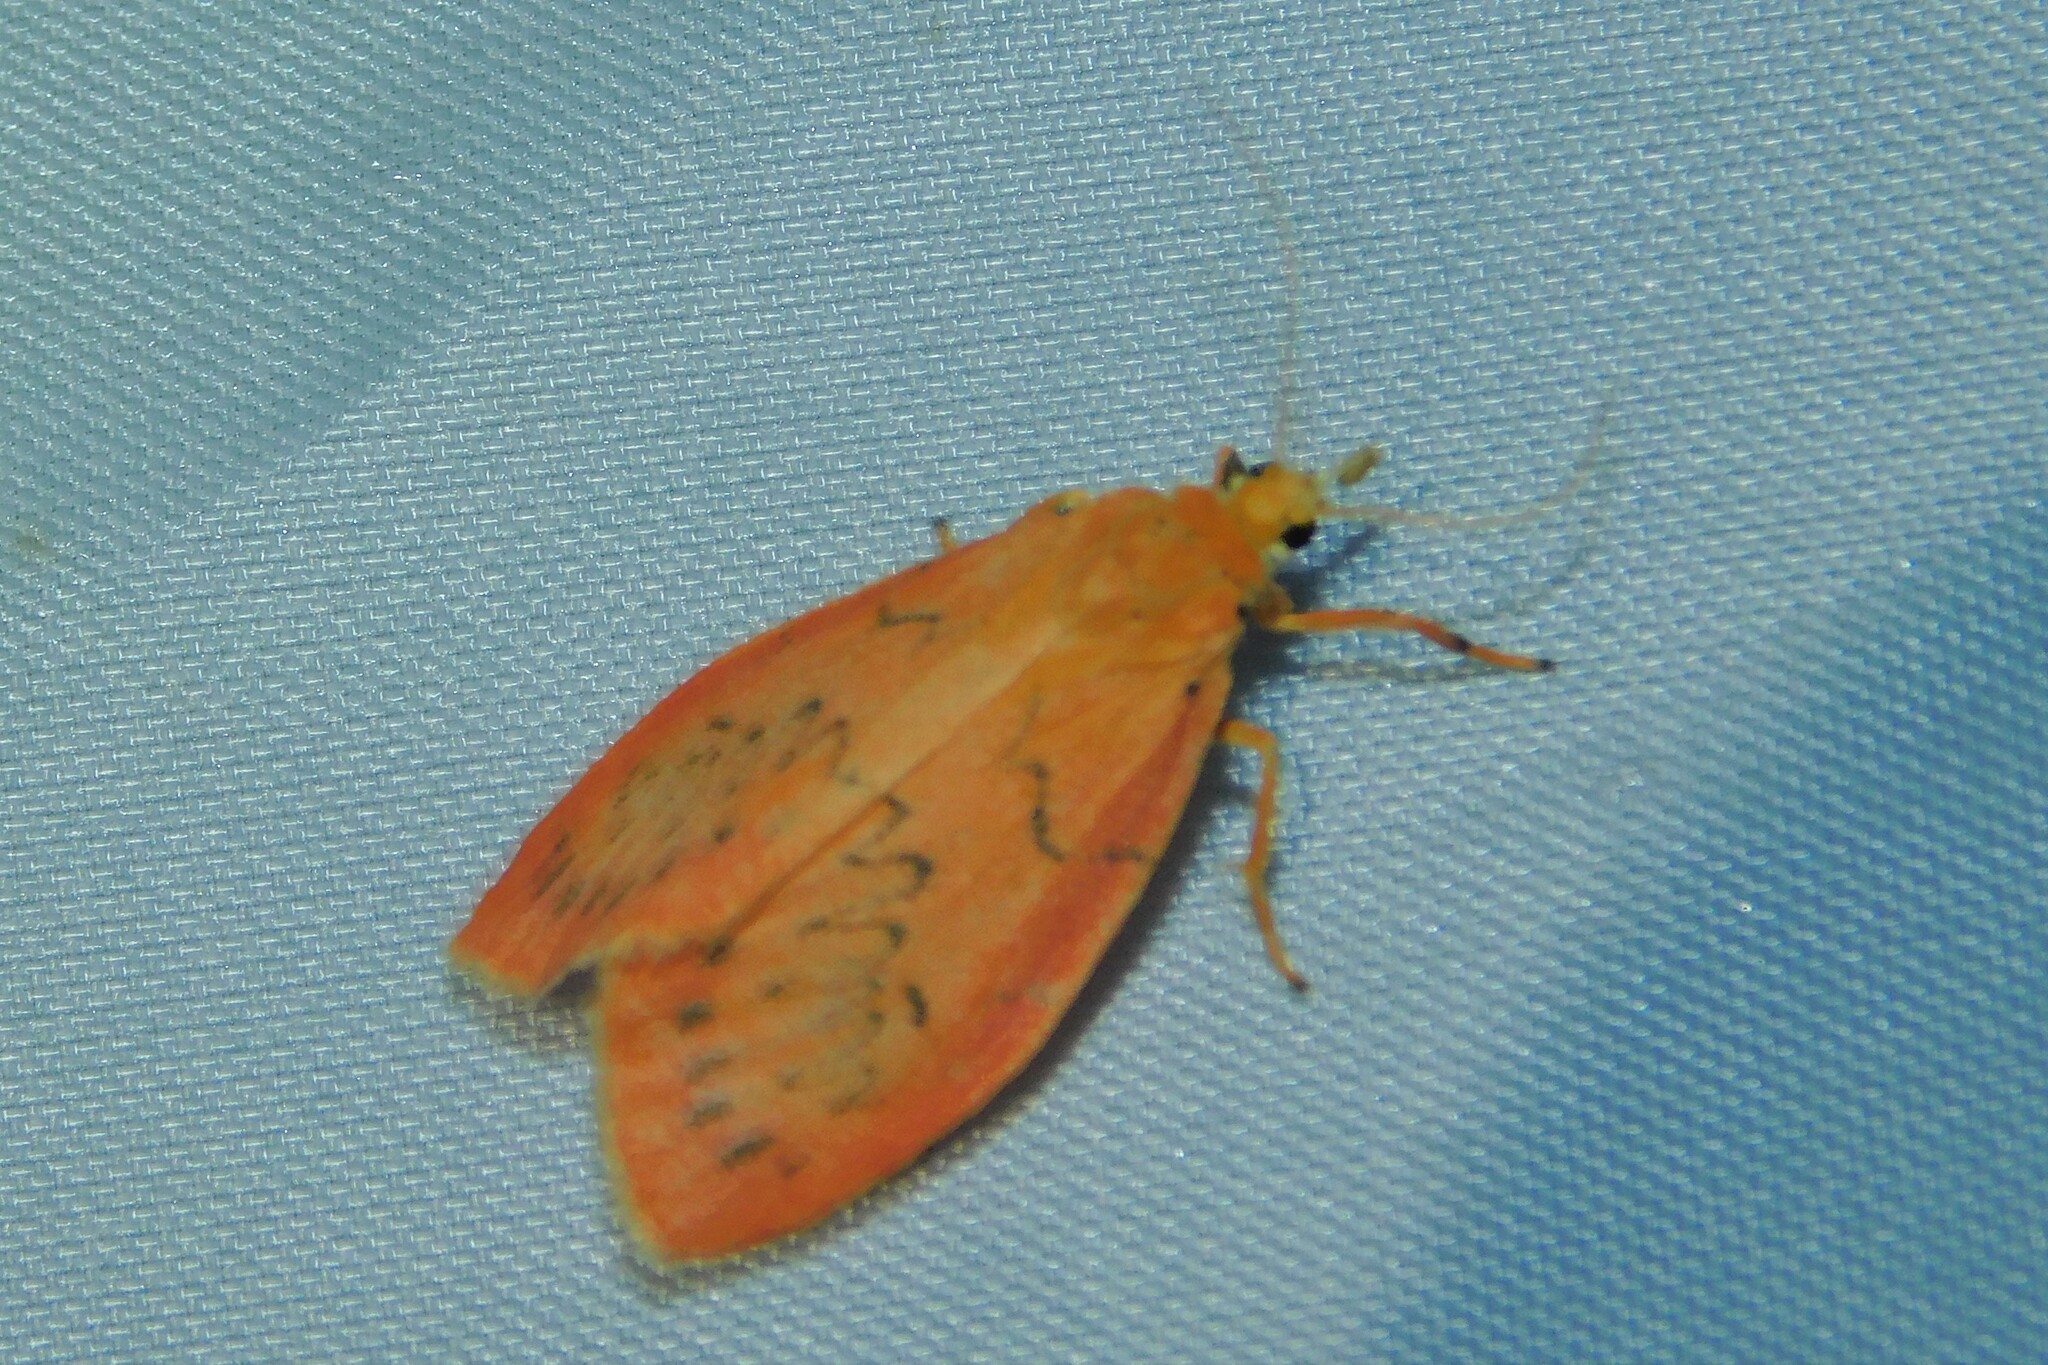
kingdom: Animalia
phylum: Arthropoda
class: Insecta
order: Lepidoptera
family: Erebidae
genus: Miltochrista
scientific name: Miltochrista miniata
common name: Rosy footman
